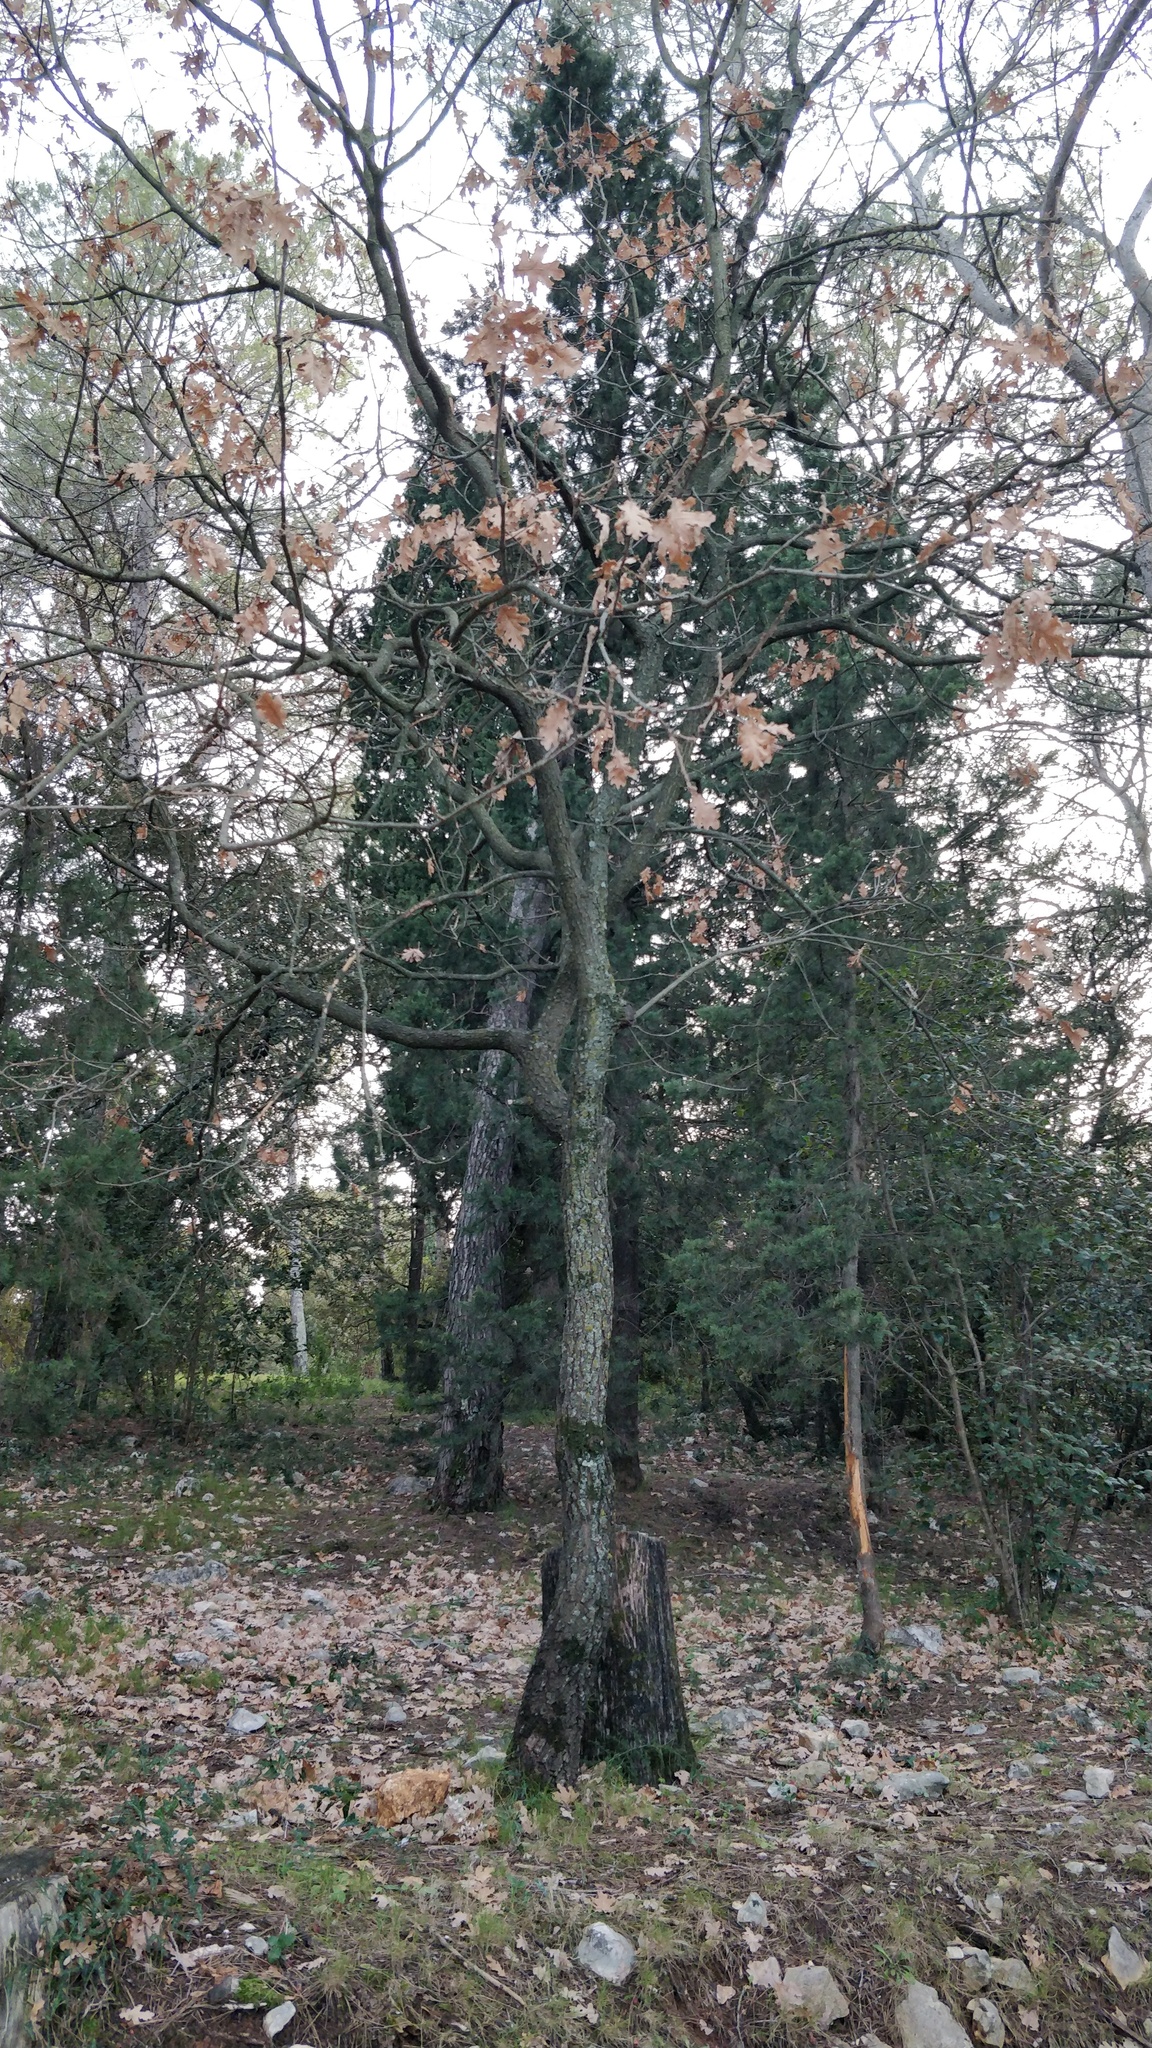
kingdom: Plantae
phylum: Tracheophyta
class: Magnoliopsida
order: Fagales
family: Fagaceae
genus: Quercus
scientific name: Quercus pubescens
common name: Downy oak
